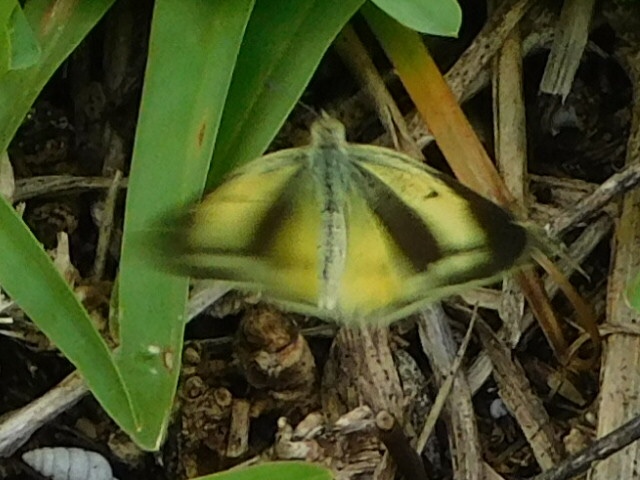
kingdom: Animalia
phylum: Arthropoda
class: Insecta
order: Lepidoptera
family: Pieridae
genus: Nathalis
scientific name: Nathalis iole
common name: Dainty sulphur
